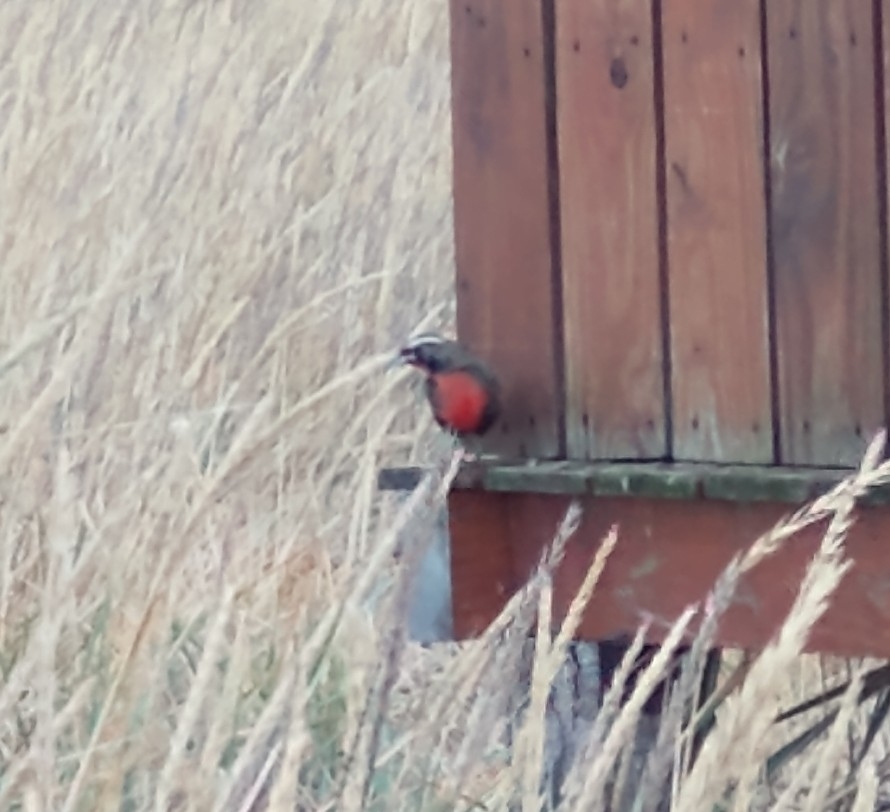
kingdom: Animalia
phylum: Chordata
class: Aves
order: Passeriformes
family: Icteridae
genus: Sturnella
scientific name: Sturnella loyca
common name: Long-tailed meadowlark
